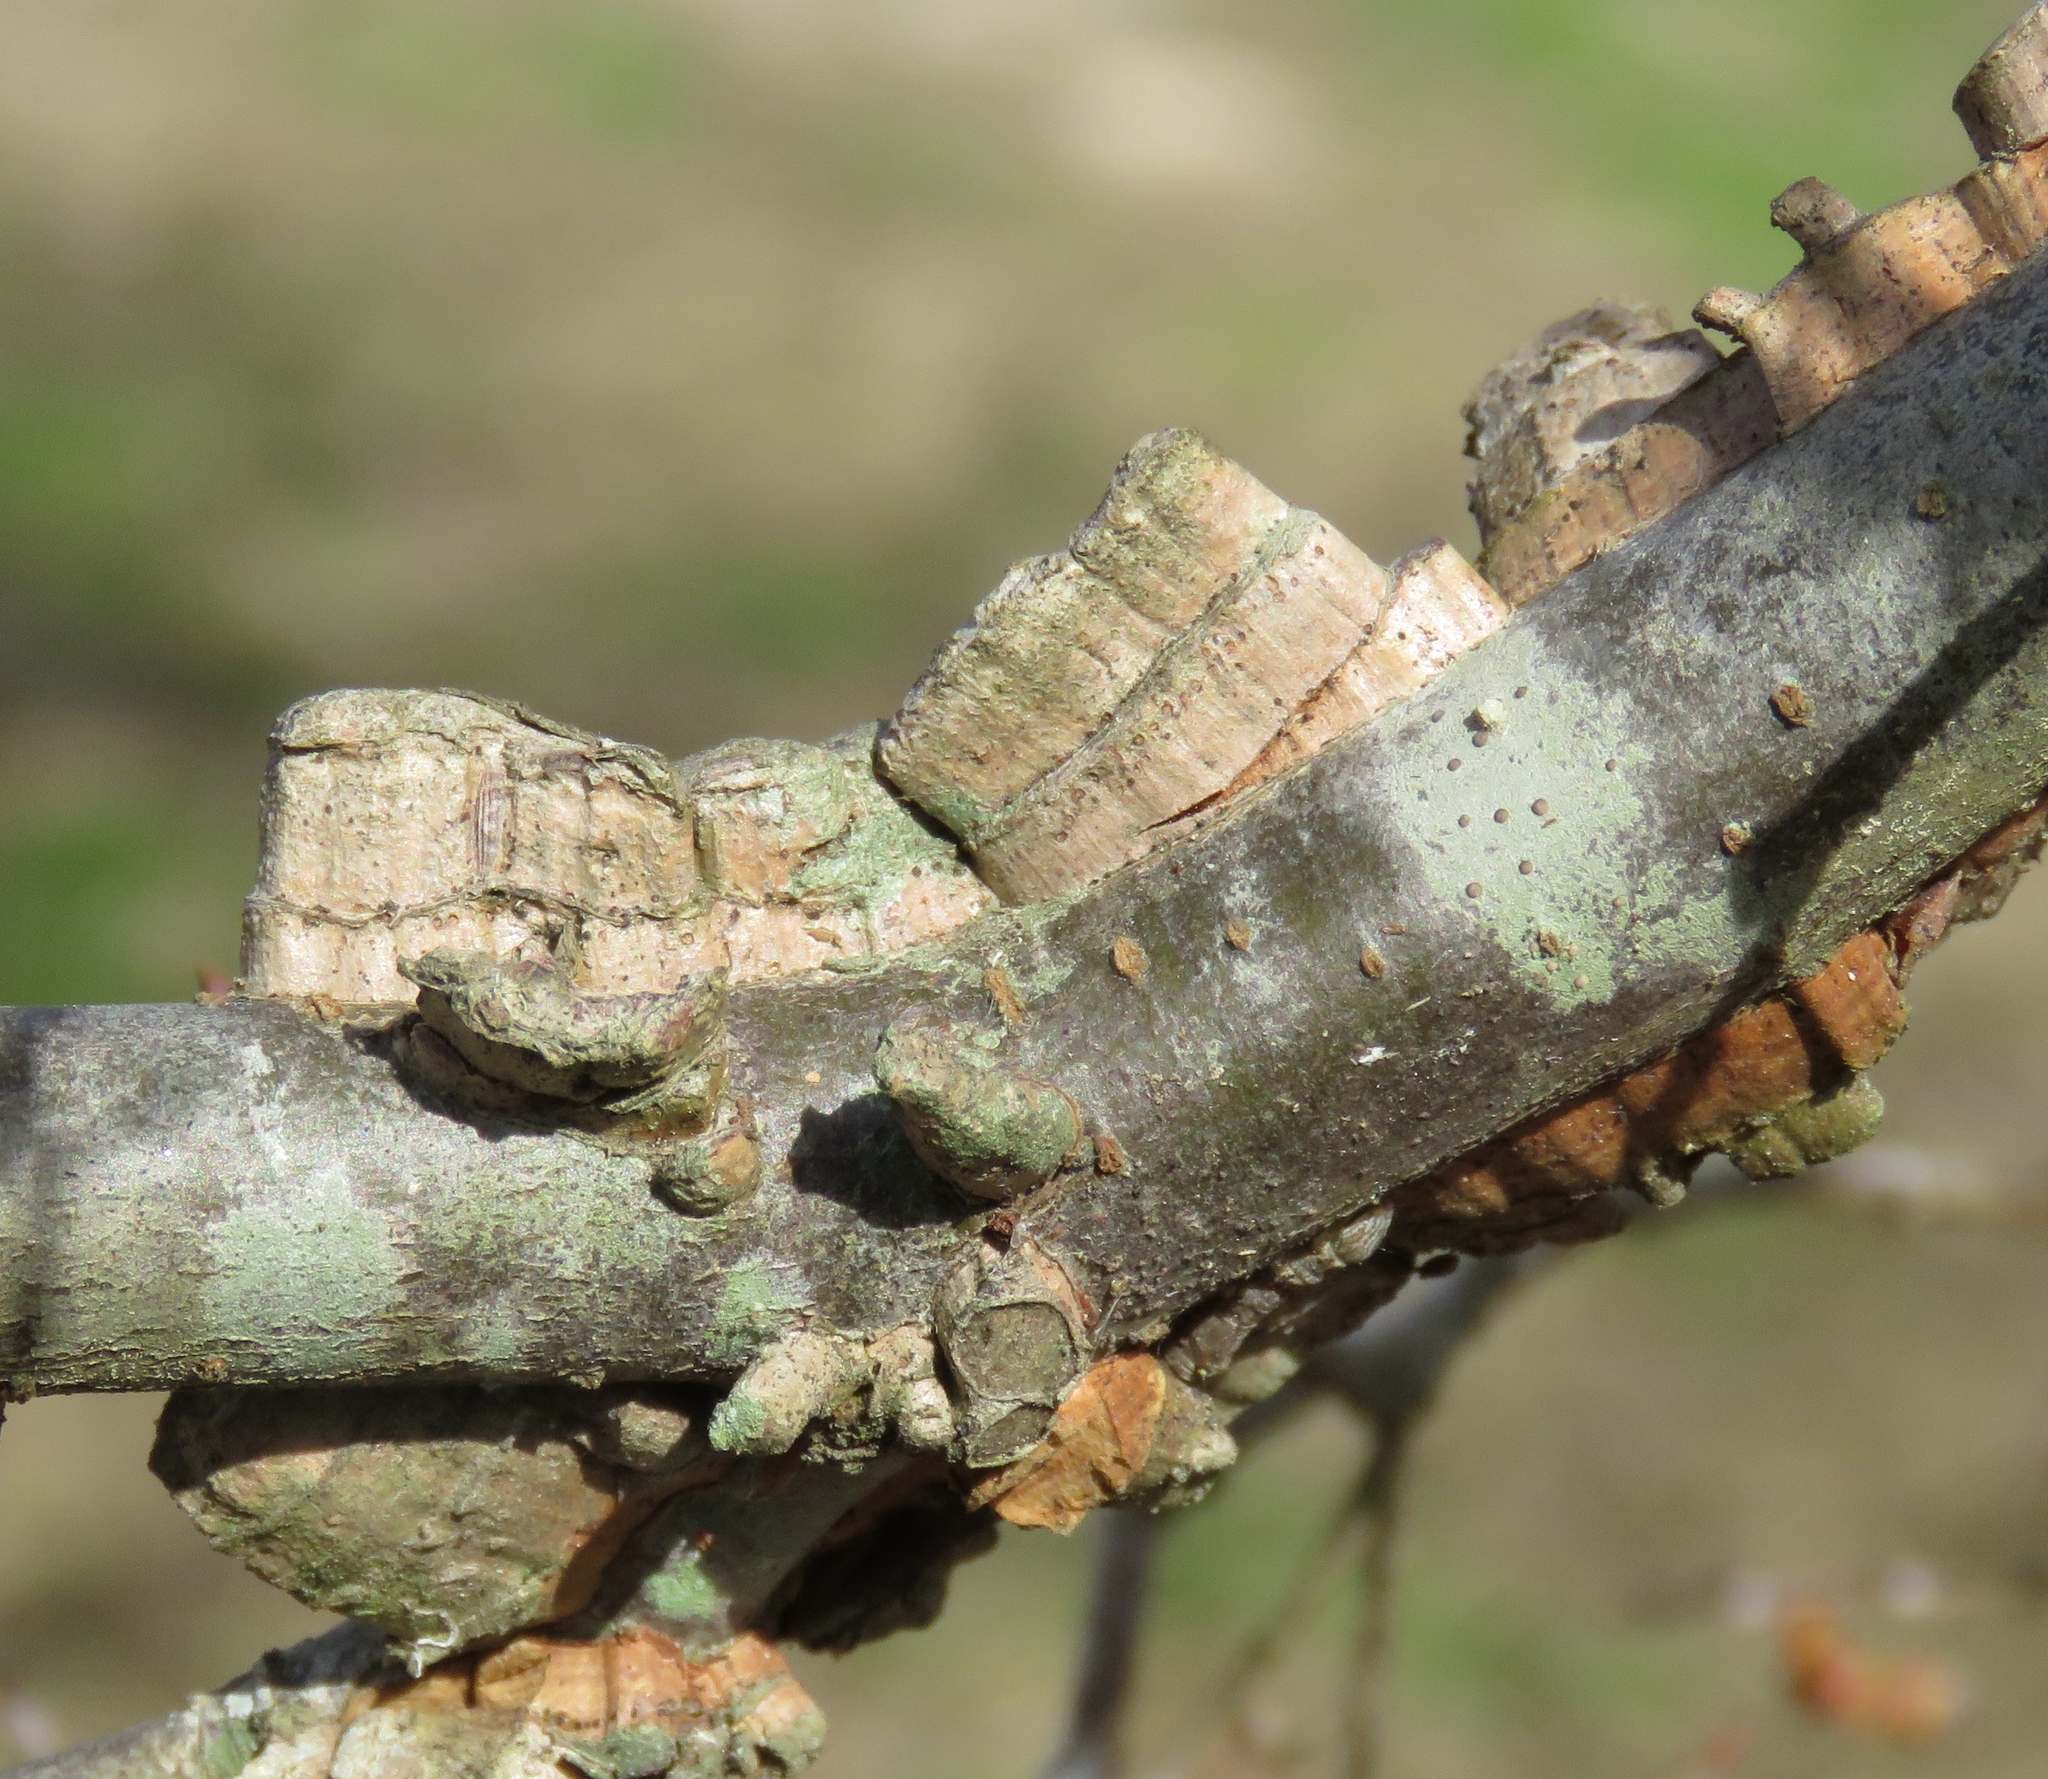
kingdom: Plantae
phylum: Tracheophyta
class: Magnoliopsida
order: Rosales
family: Ulmaceae
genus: Ulmus
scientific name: Ulmus alata
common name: Winged elm
